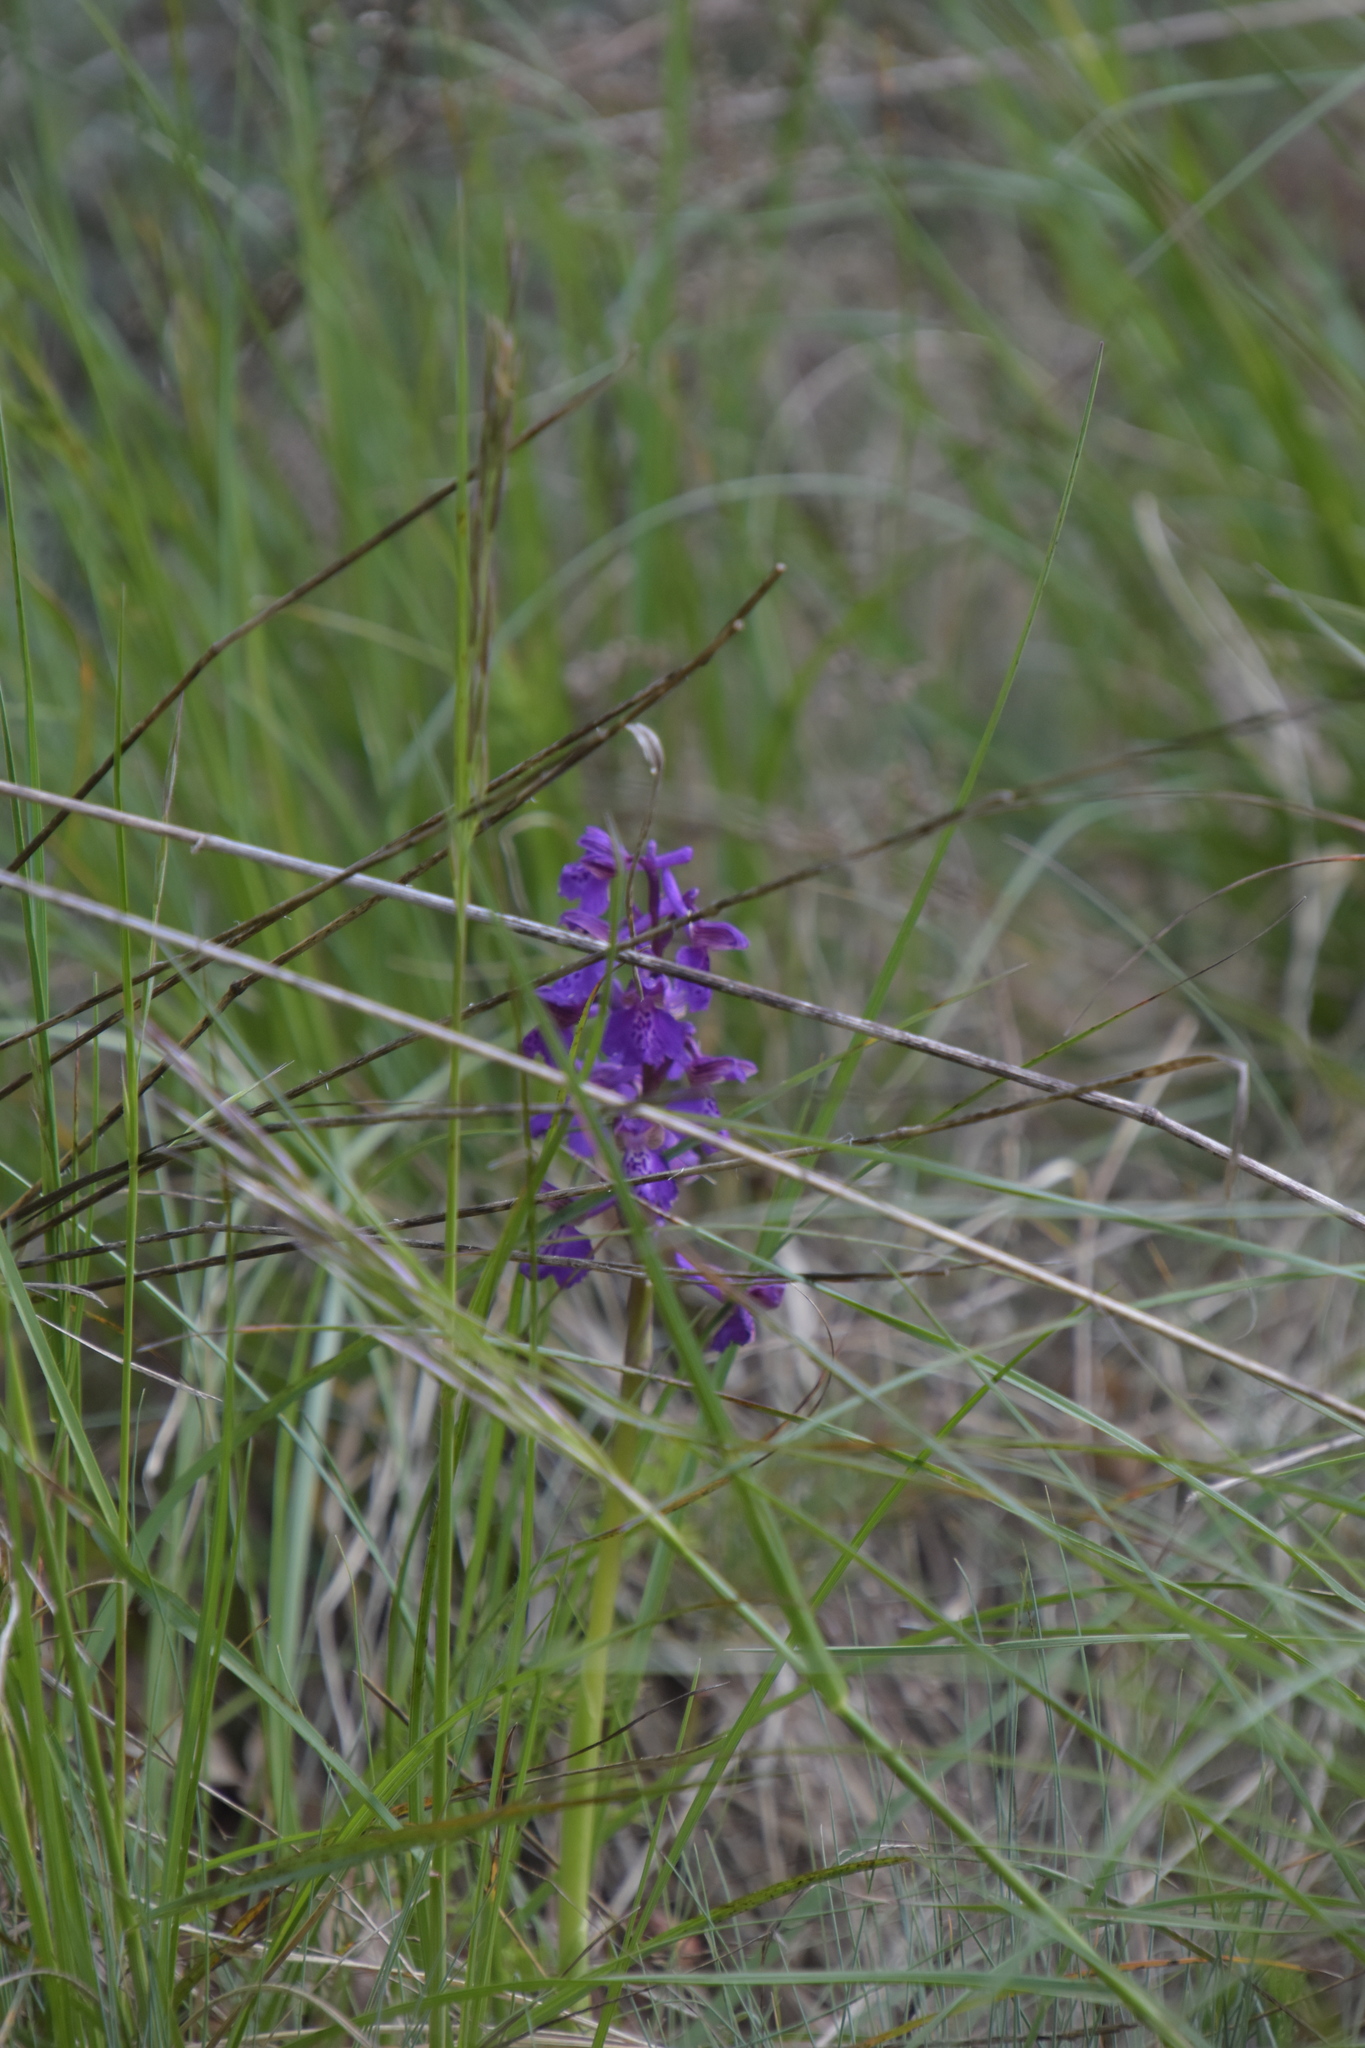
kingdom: Plantae
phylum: Tracheophyta
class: Liliopsida
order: Asparagales
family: Orchidaceae
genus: Anacamptis
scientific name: Anacamptis morio
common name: Green-winged orchid
